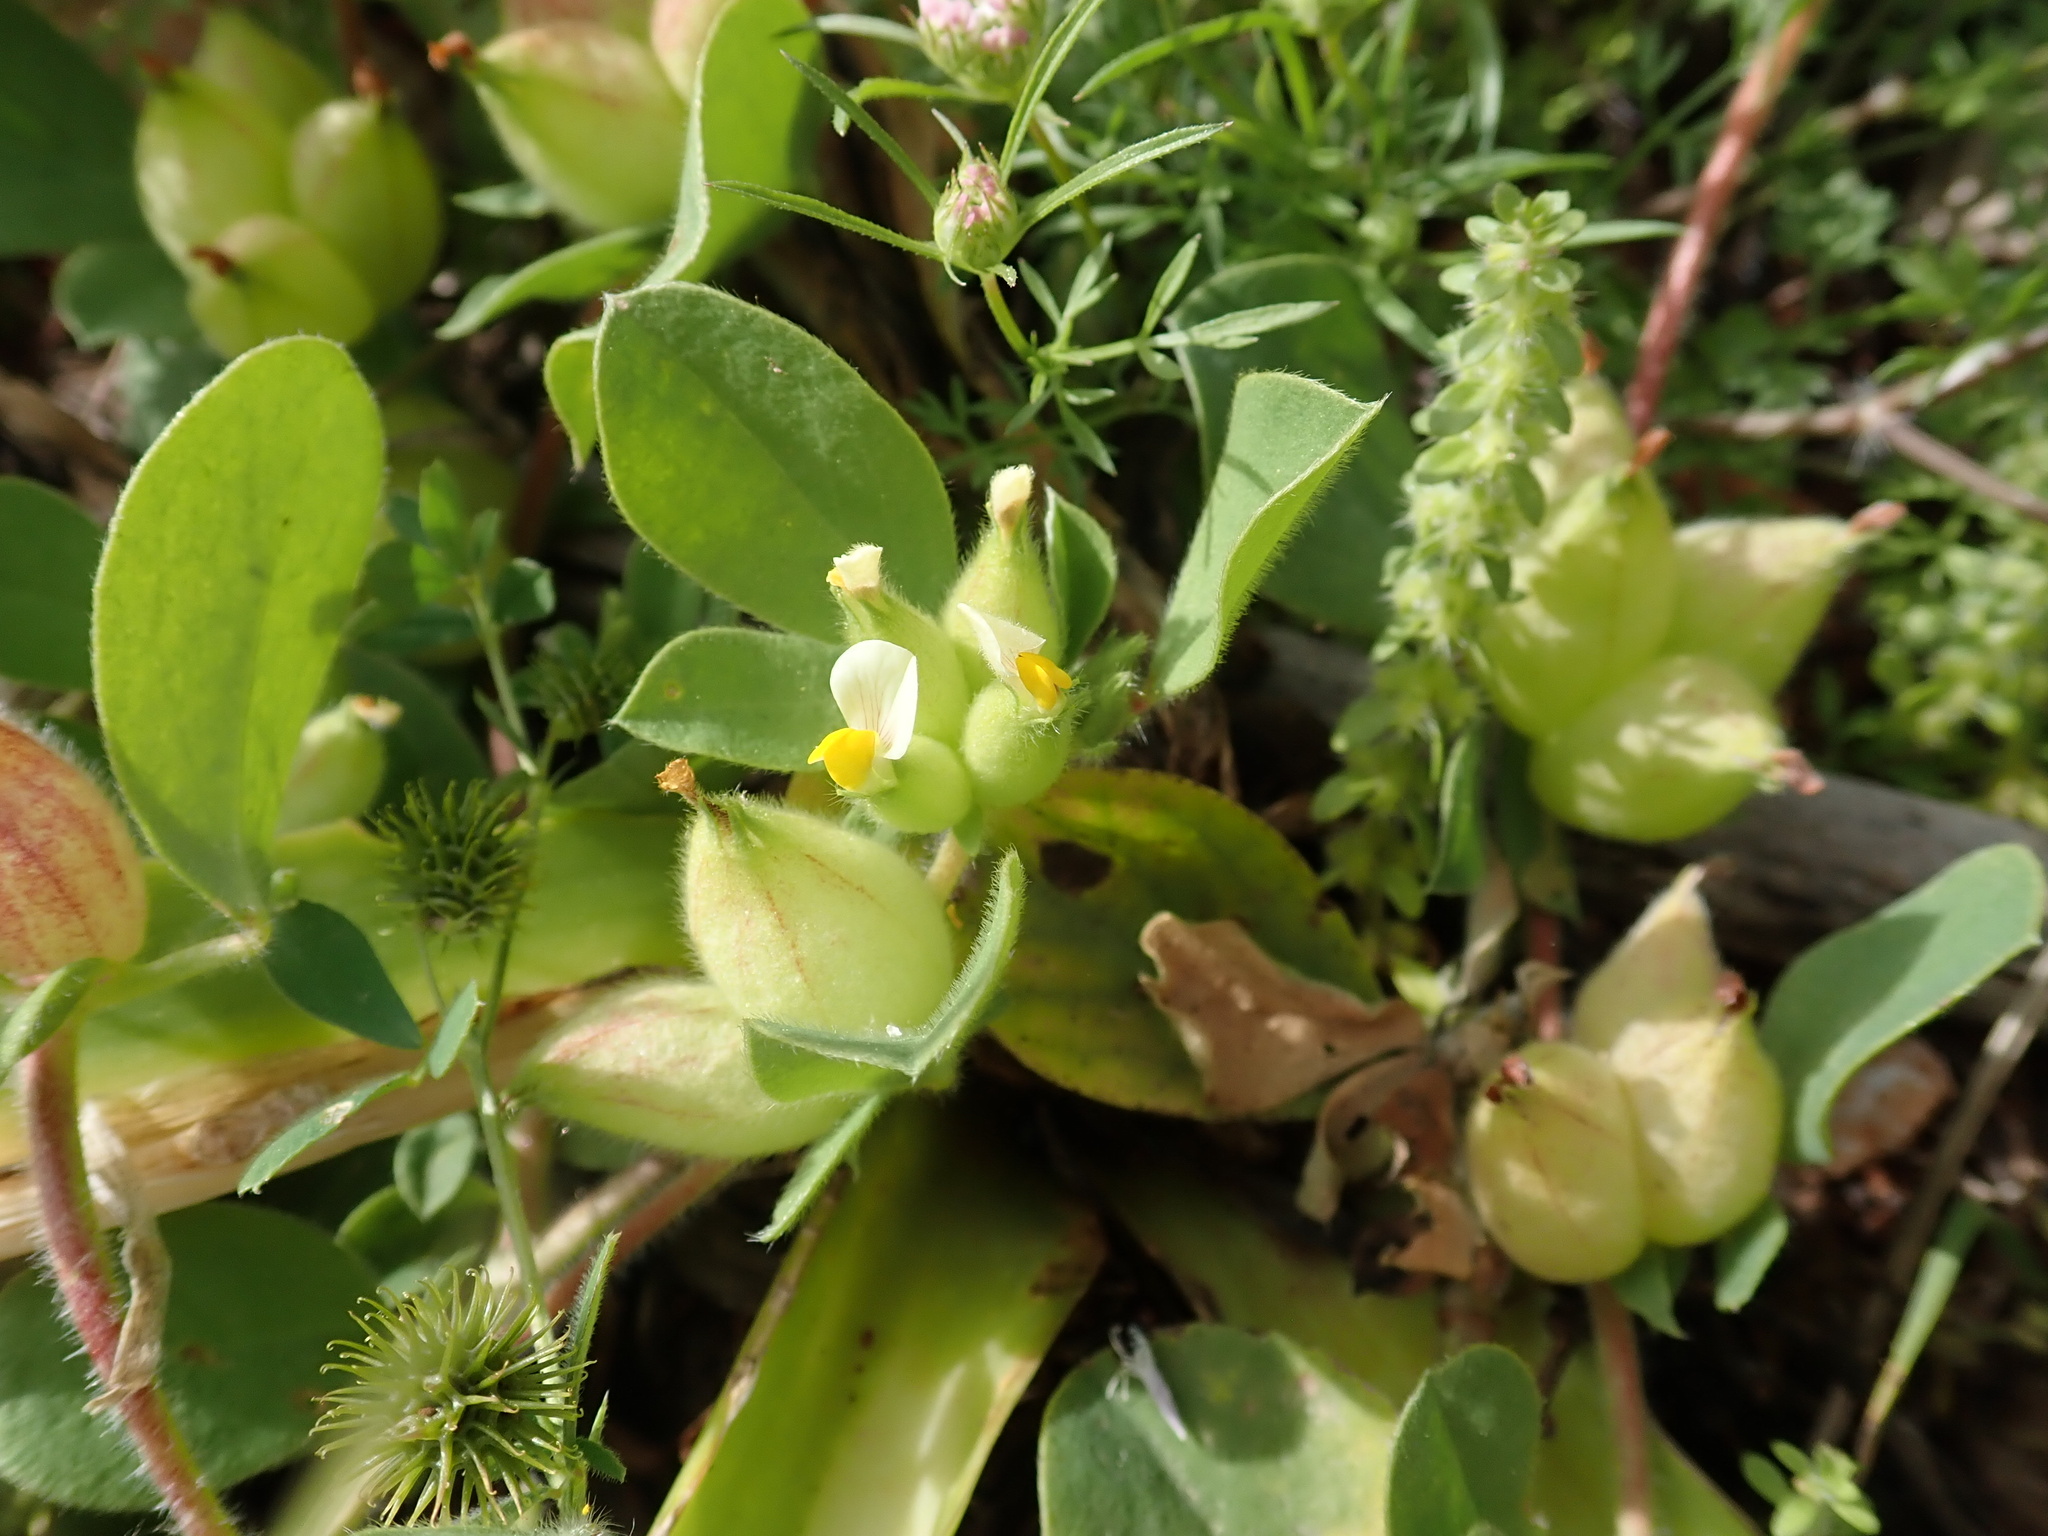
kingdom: Plantae
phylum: Tracheophyta
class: Magnoliopsida
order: Fabales
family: Fabaceae
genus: Tripodion
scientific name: Tripodion tetraphyllum
